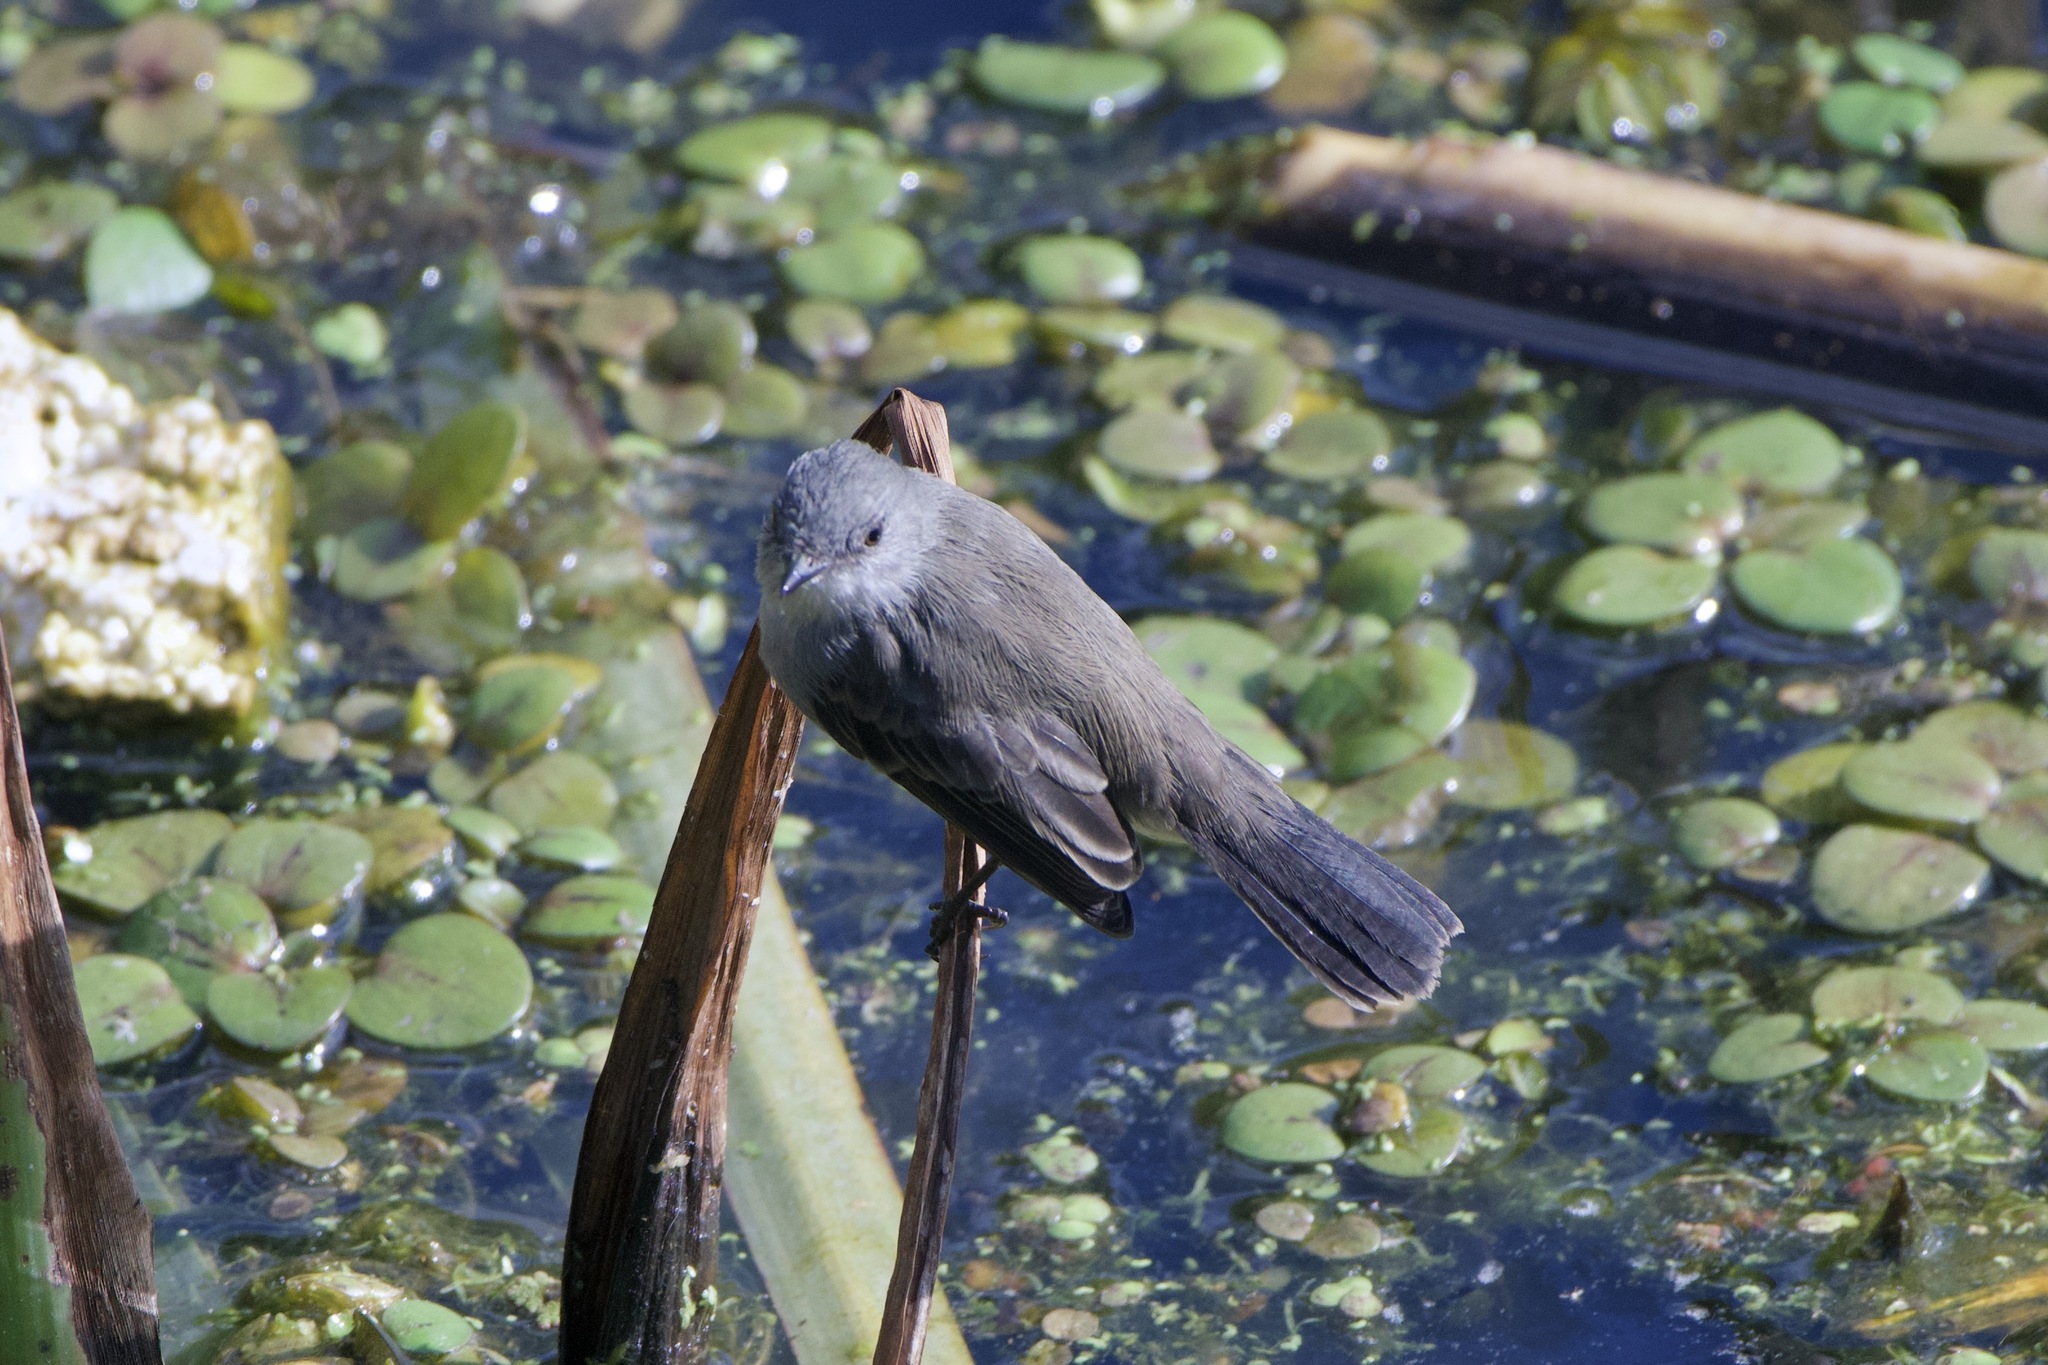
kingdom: Animalia
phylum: Chordata
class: Aves
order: Passeriformes
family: Tyrannidae
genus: Serpophaga
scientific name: Serpophaga nigricans
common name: Sooty tyrannulet
